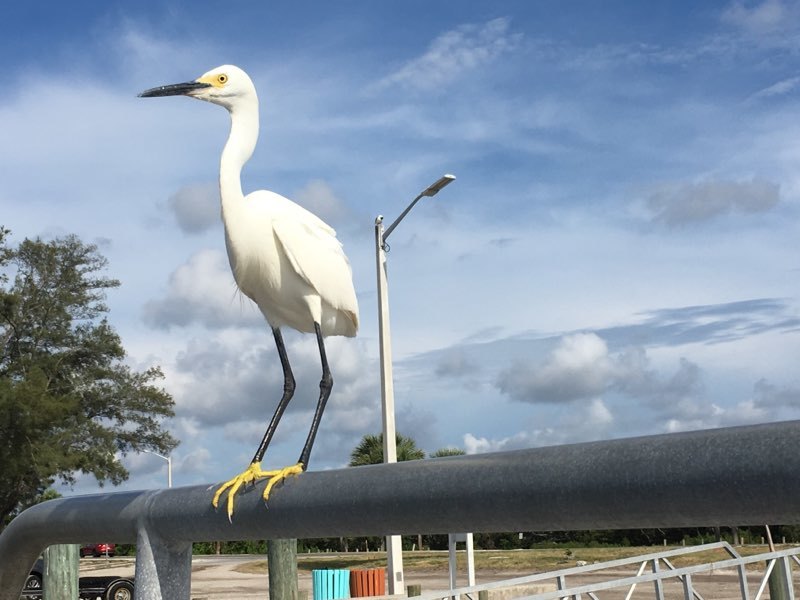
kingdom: Animalia
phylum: Chordata
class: Aves
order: Pelecaniformes
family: Ardeidae
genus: Egretta
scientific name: Egretta thula
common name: Snowy egret
